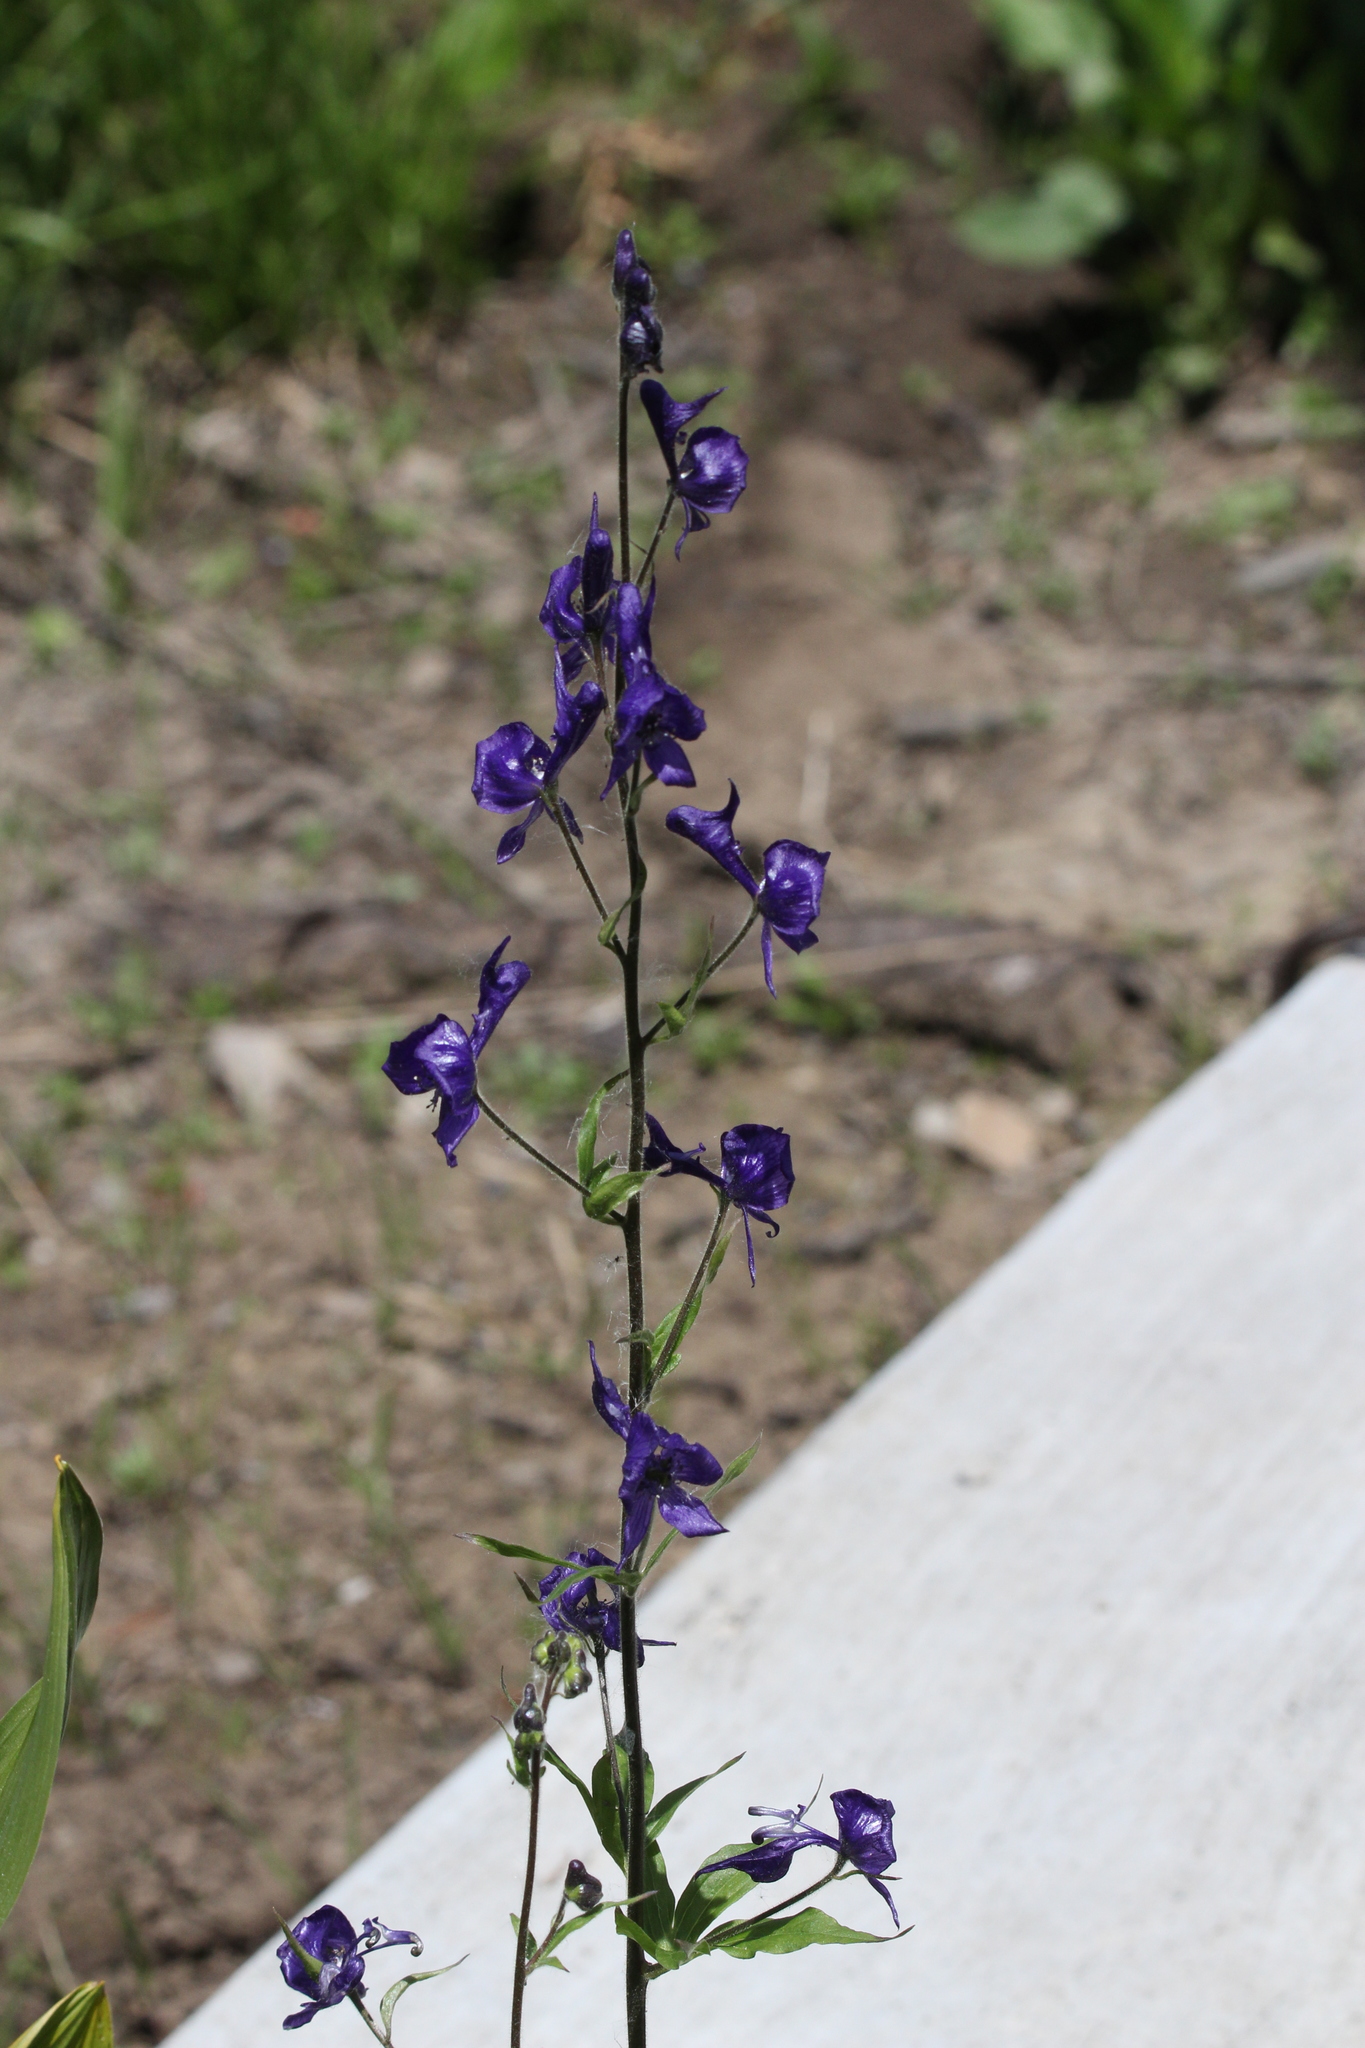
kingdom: Plantae
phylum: Tracheophyta
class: Magnoliopsida
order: Ranunculales
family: Ranunculaceae
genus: Aconitum
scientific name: Aconitum columbianum
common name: Columbia aconite
